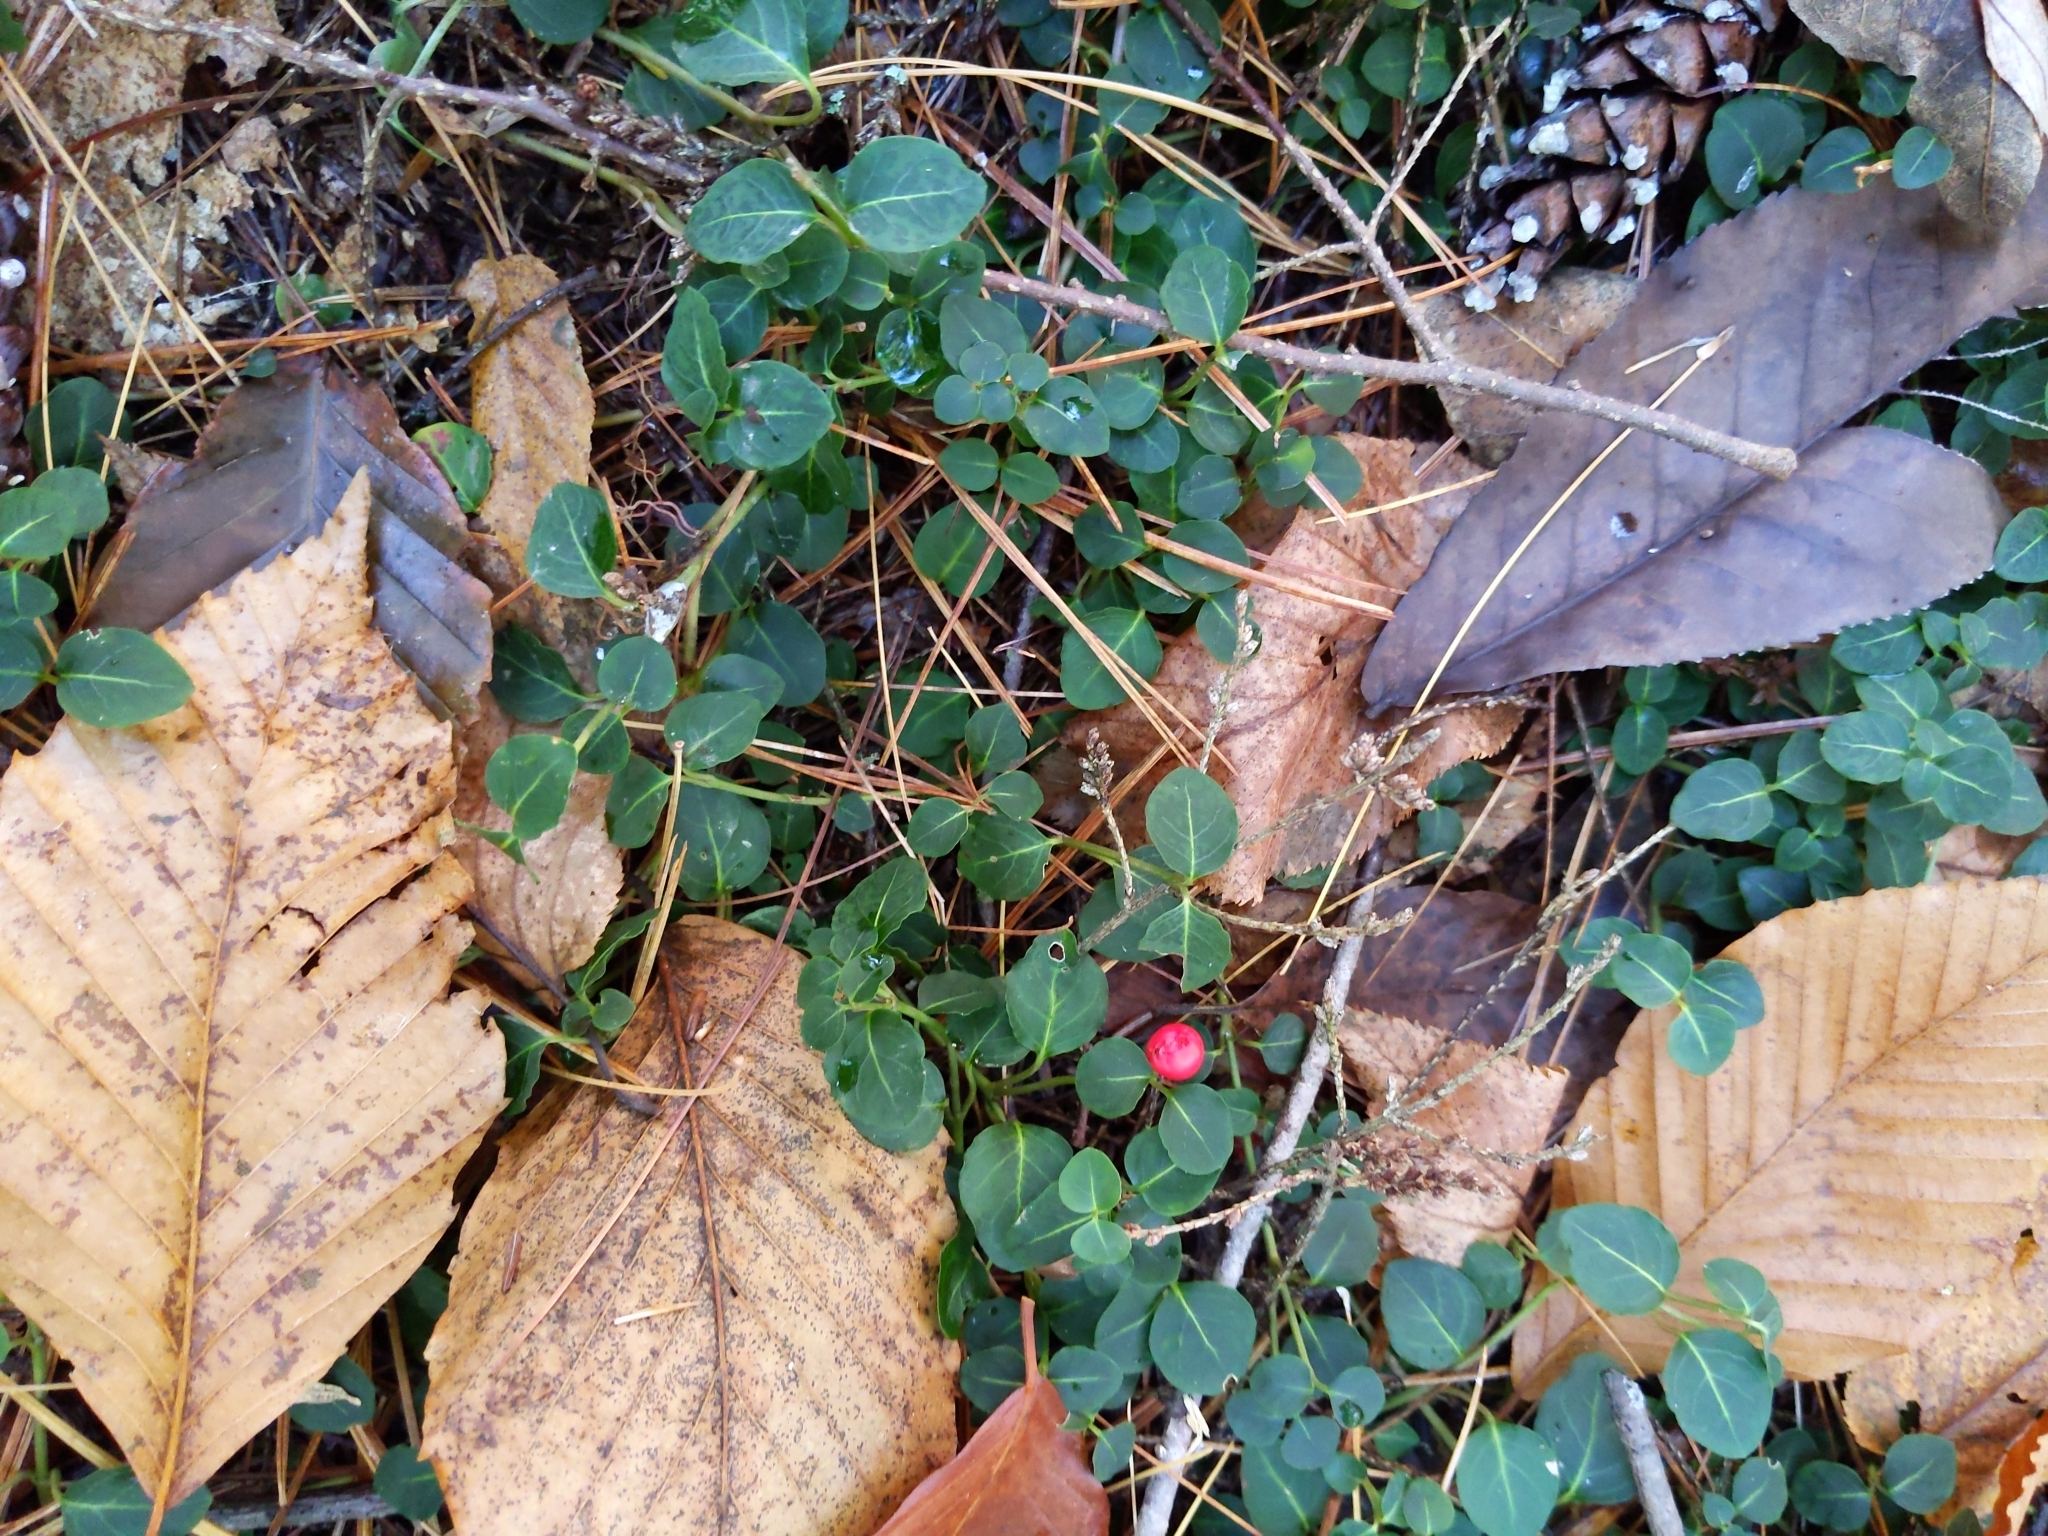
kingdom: Plantae
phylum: Tracheophyta
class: Magnoliopsida
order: Gentianales
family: Rubiaceae
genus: Mitchella
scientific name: Mitchella repens
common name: Partridge-berry
